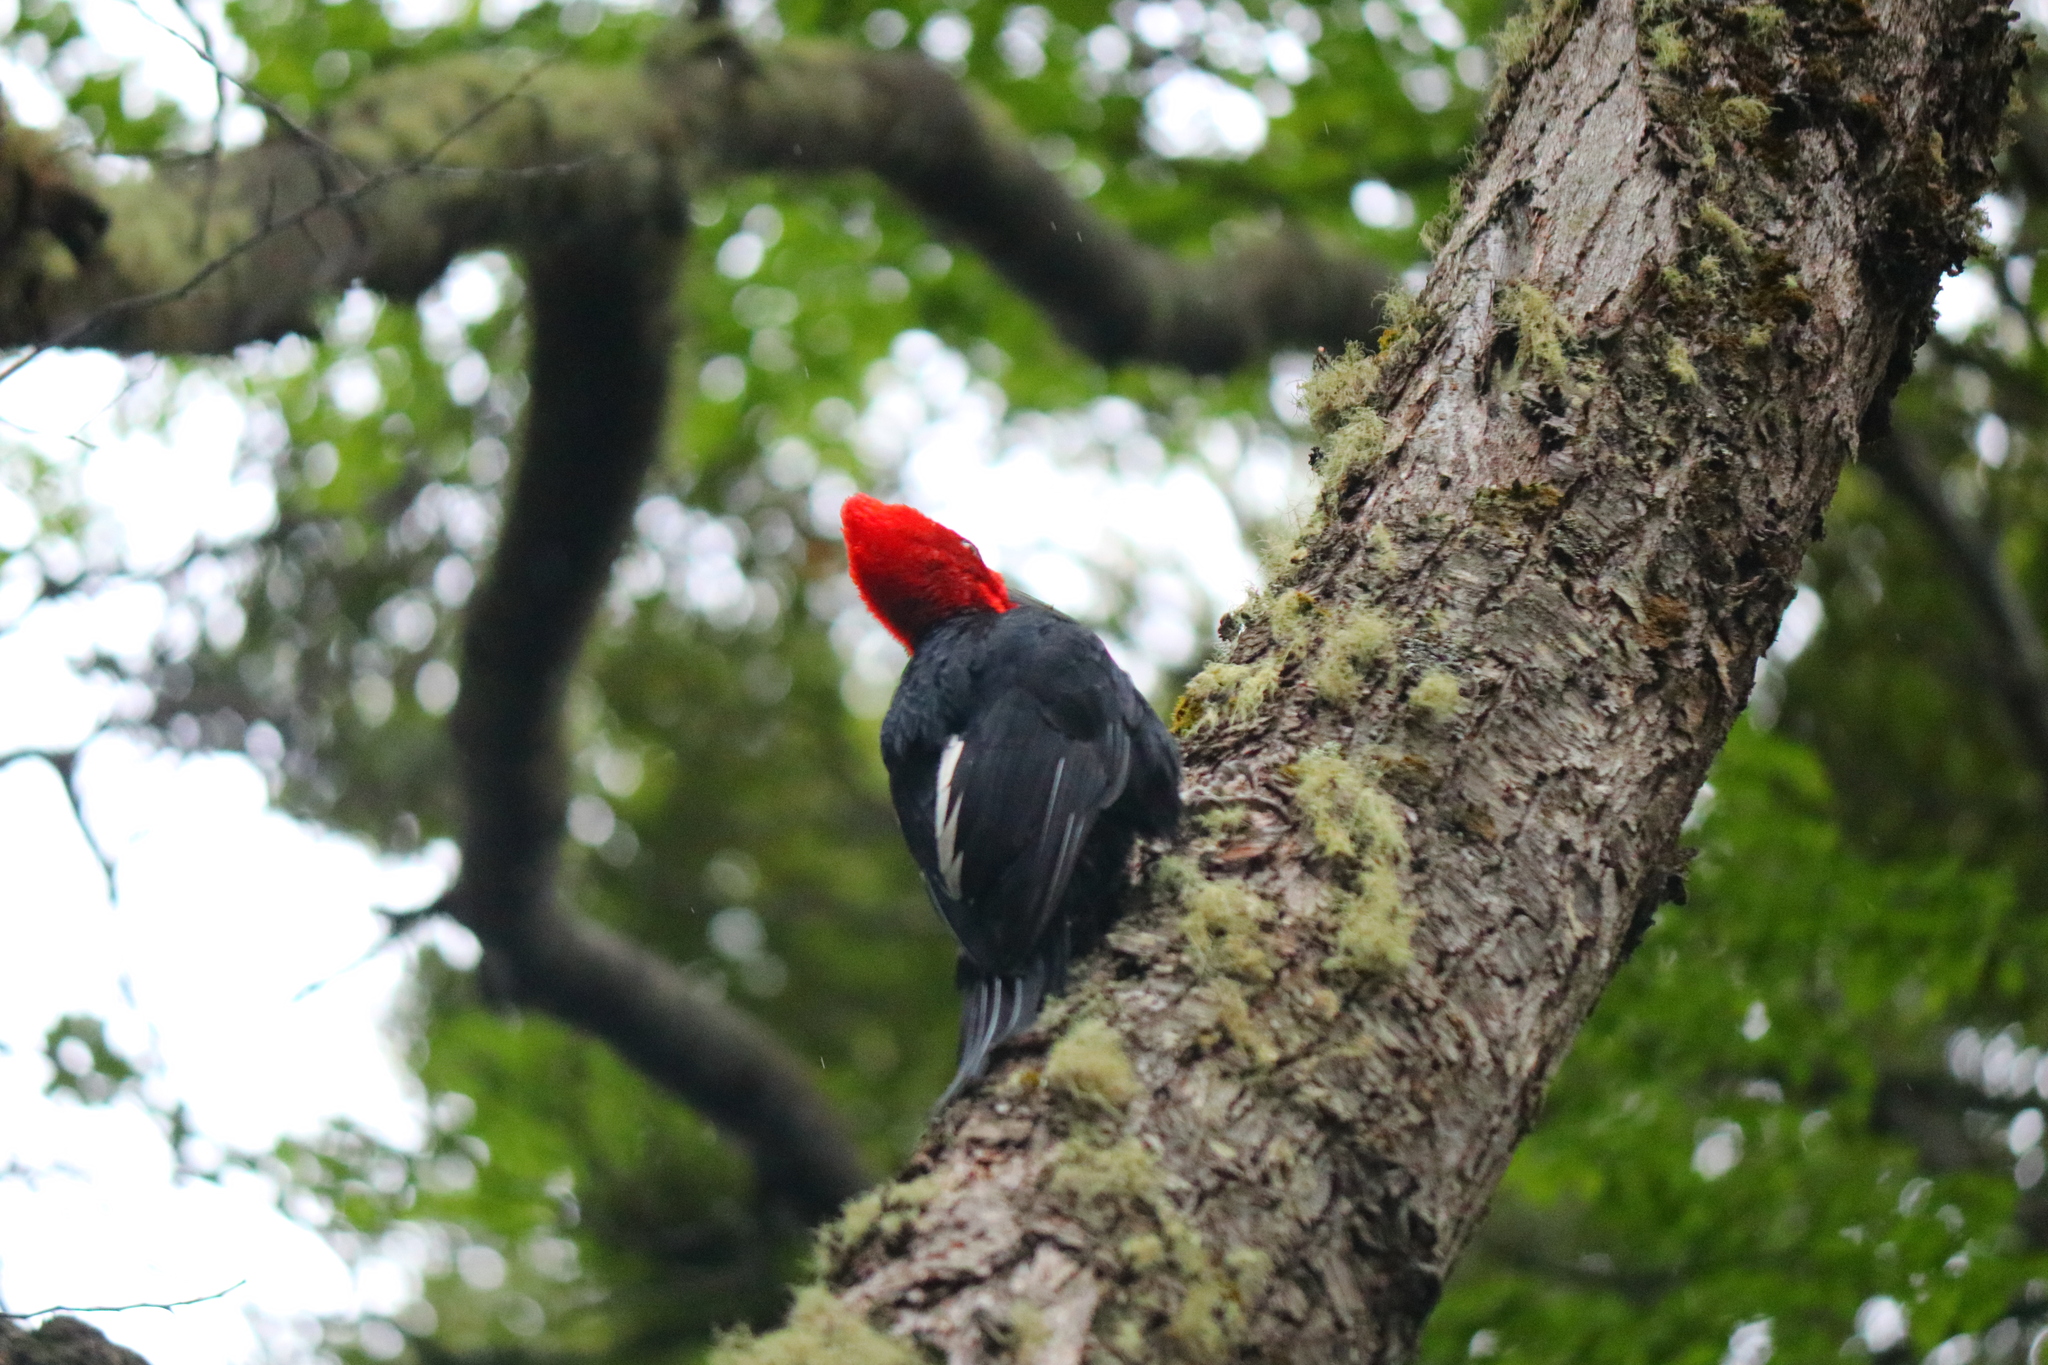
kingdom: Animalia
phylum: Chordata
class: Aves
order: Piciformes
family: Picidae
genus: Campephilus
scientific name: Campephilus magellanicus
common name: Magellanic woodpecker
